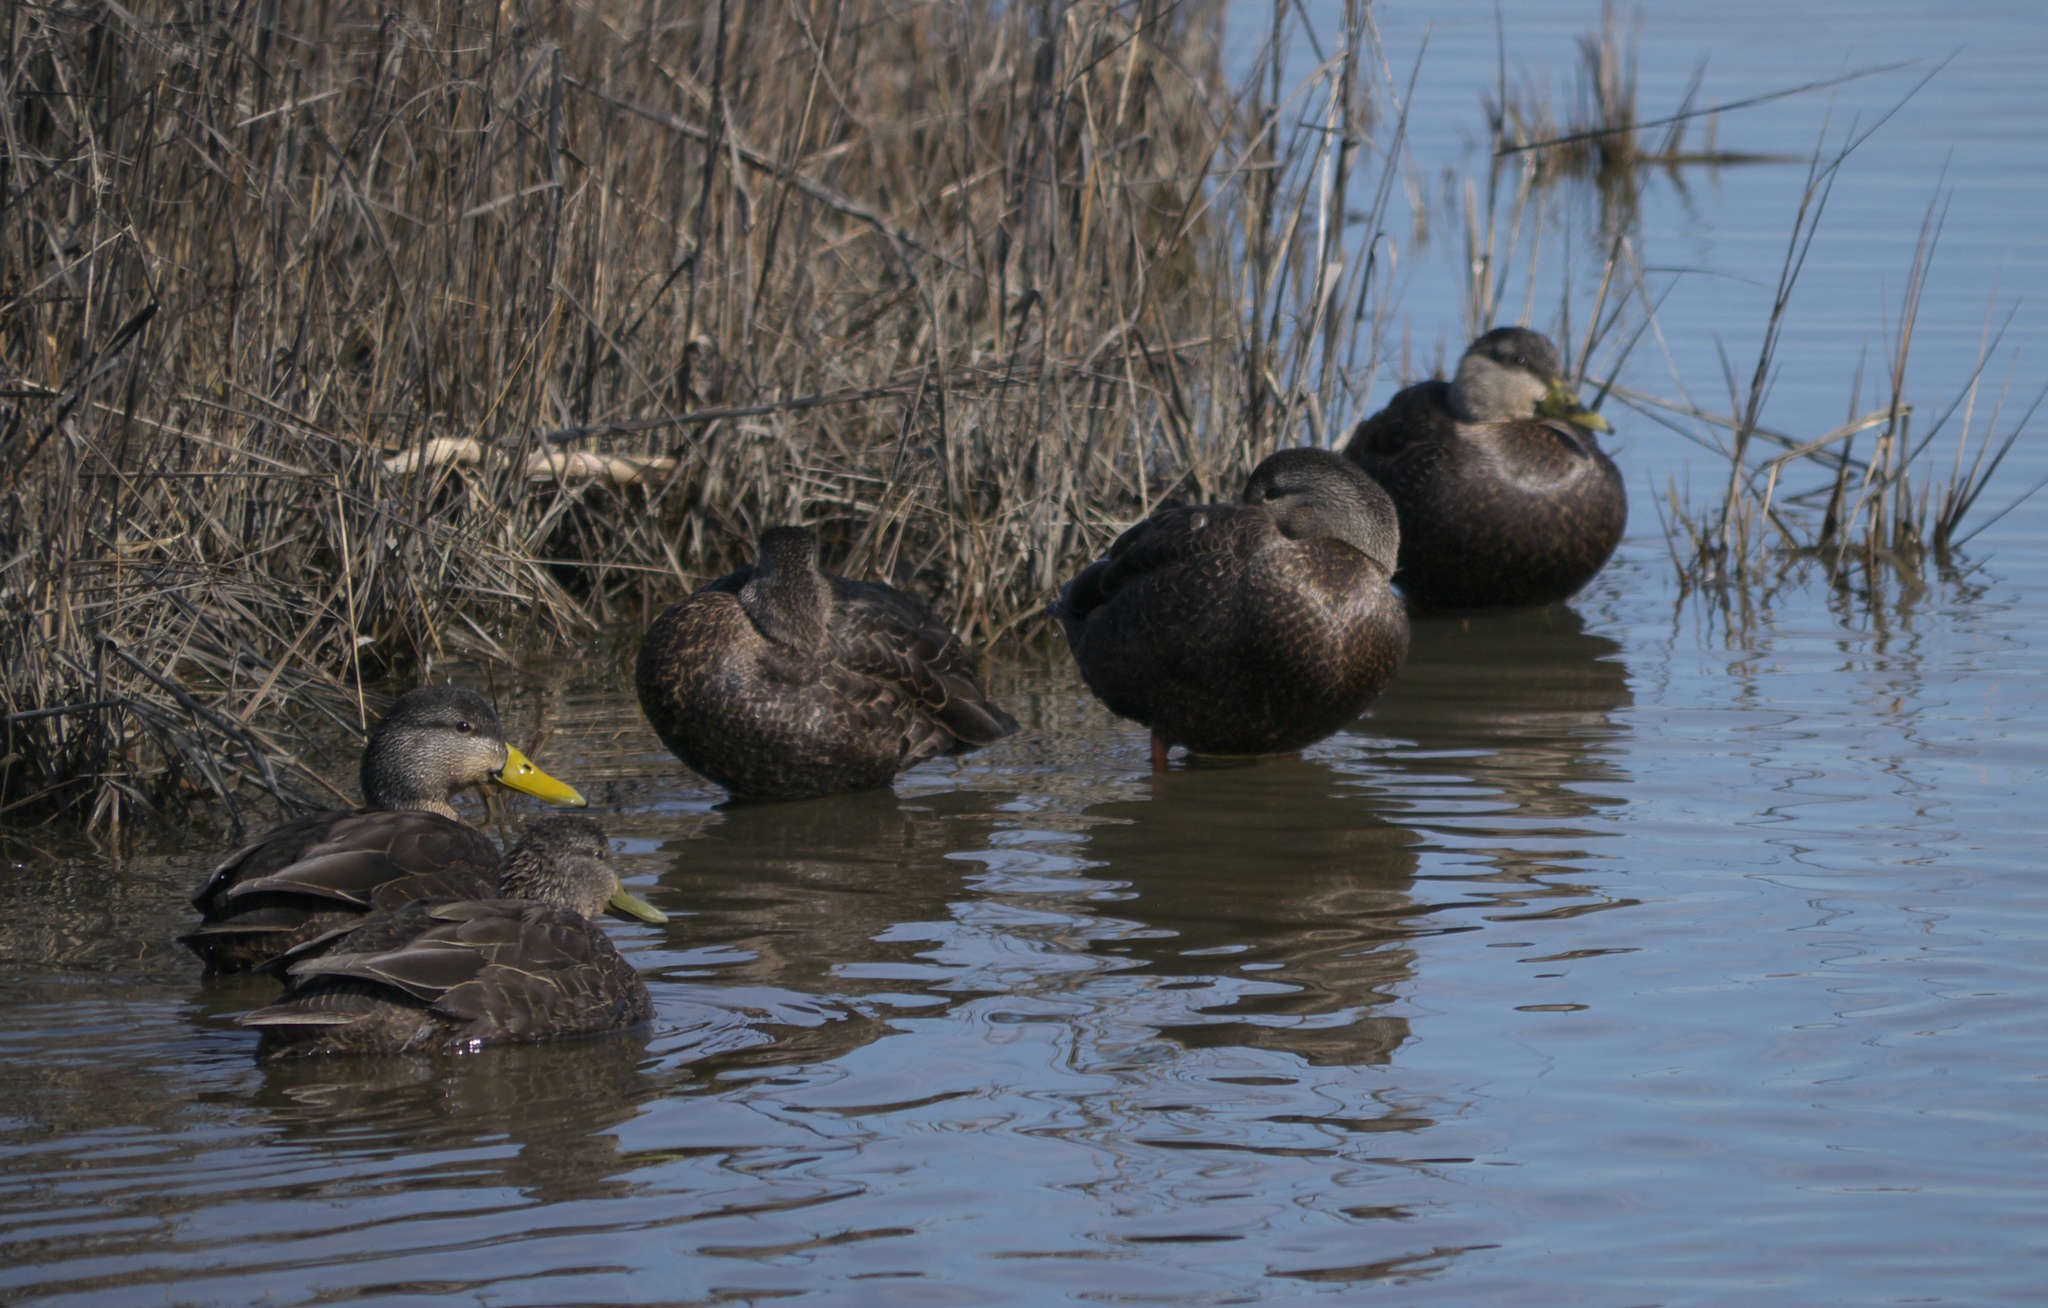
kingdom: Animalia
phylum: Chordata
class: Aves
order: Anseriformes
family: Anatidae
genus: Anas
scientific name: Anas rubripes
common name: American black duck
